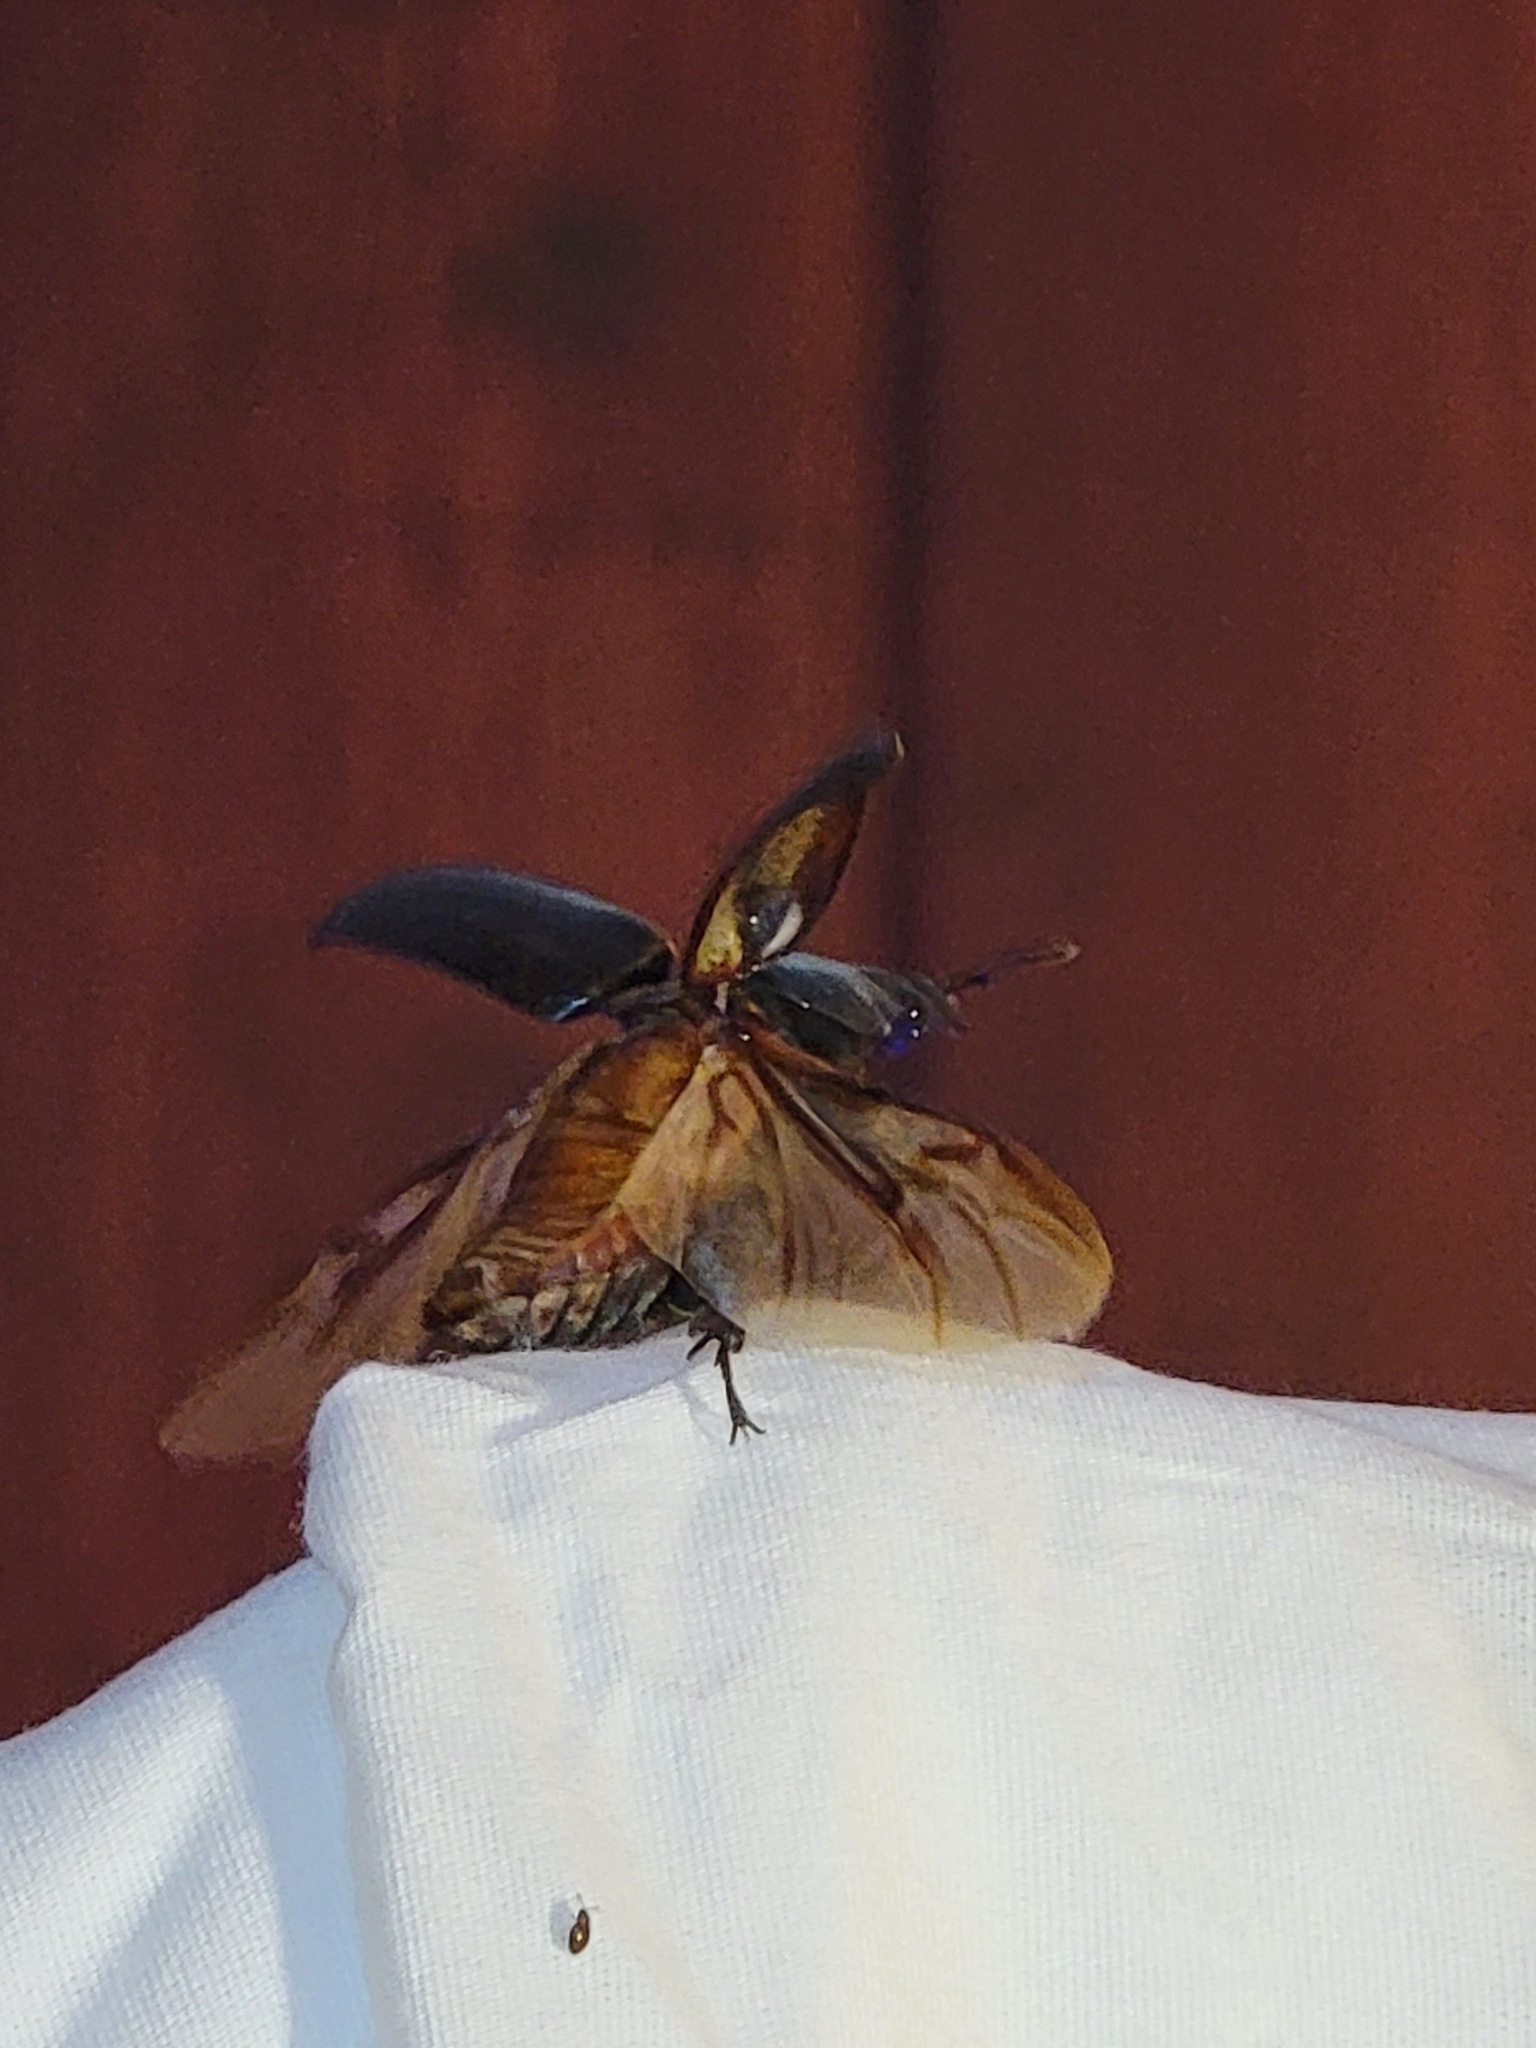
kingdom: Animalia
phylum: Arthropoda
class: Insecta
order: Coleoptera
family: Lucanidae
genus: Lucanus
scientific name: Lucanus placidus
